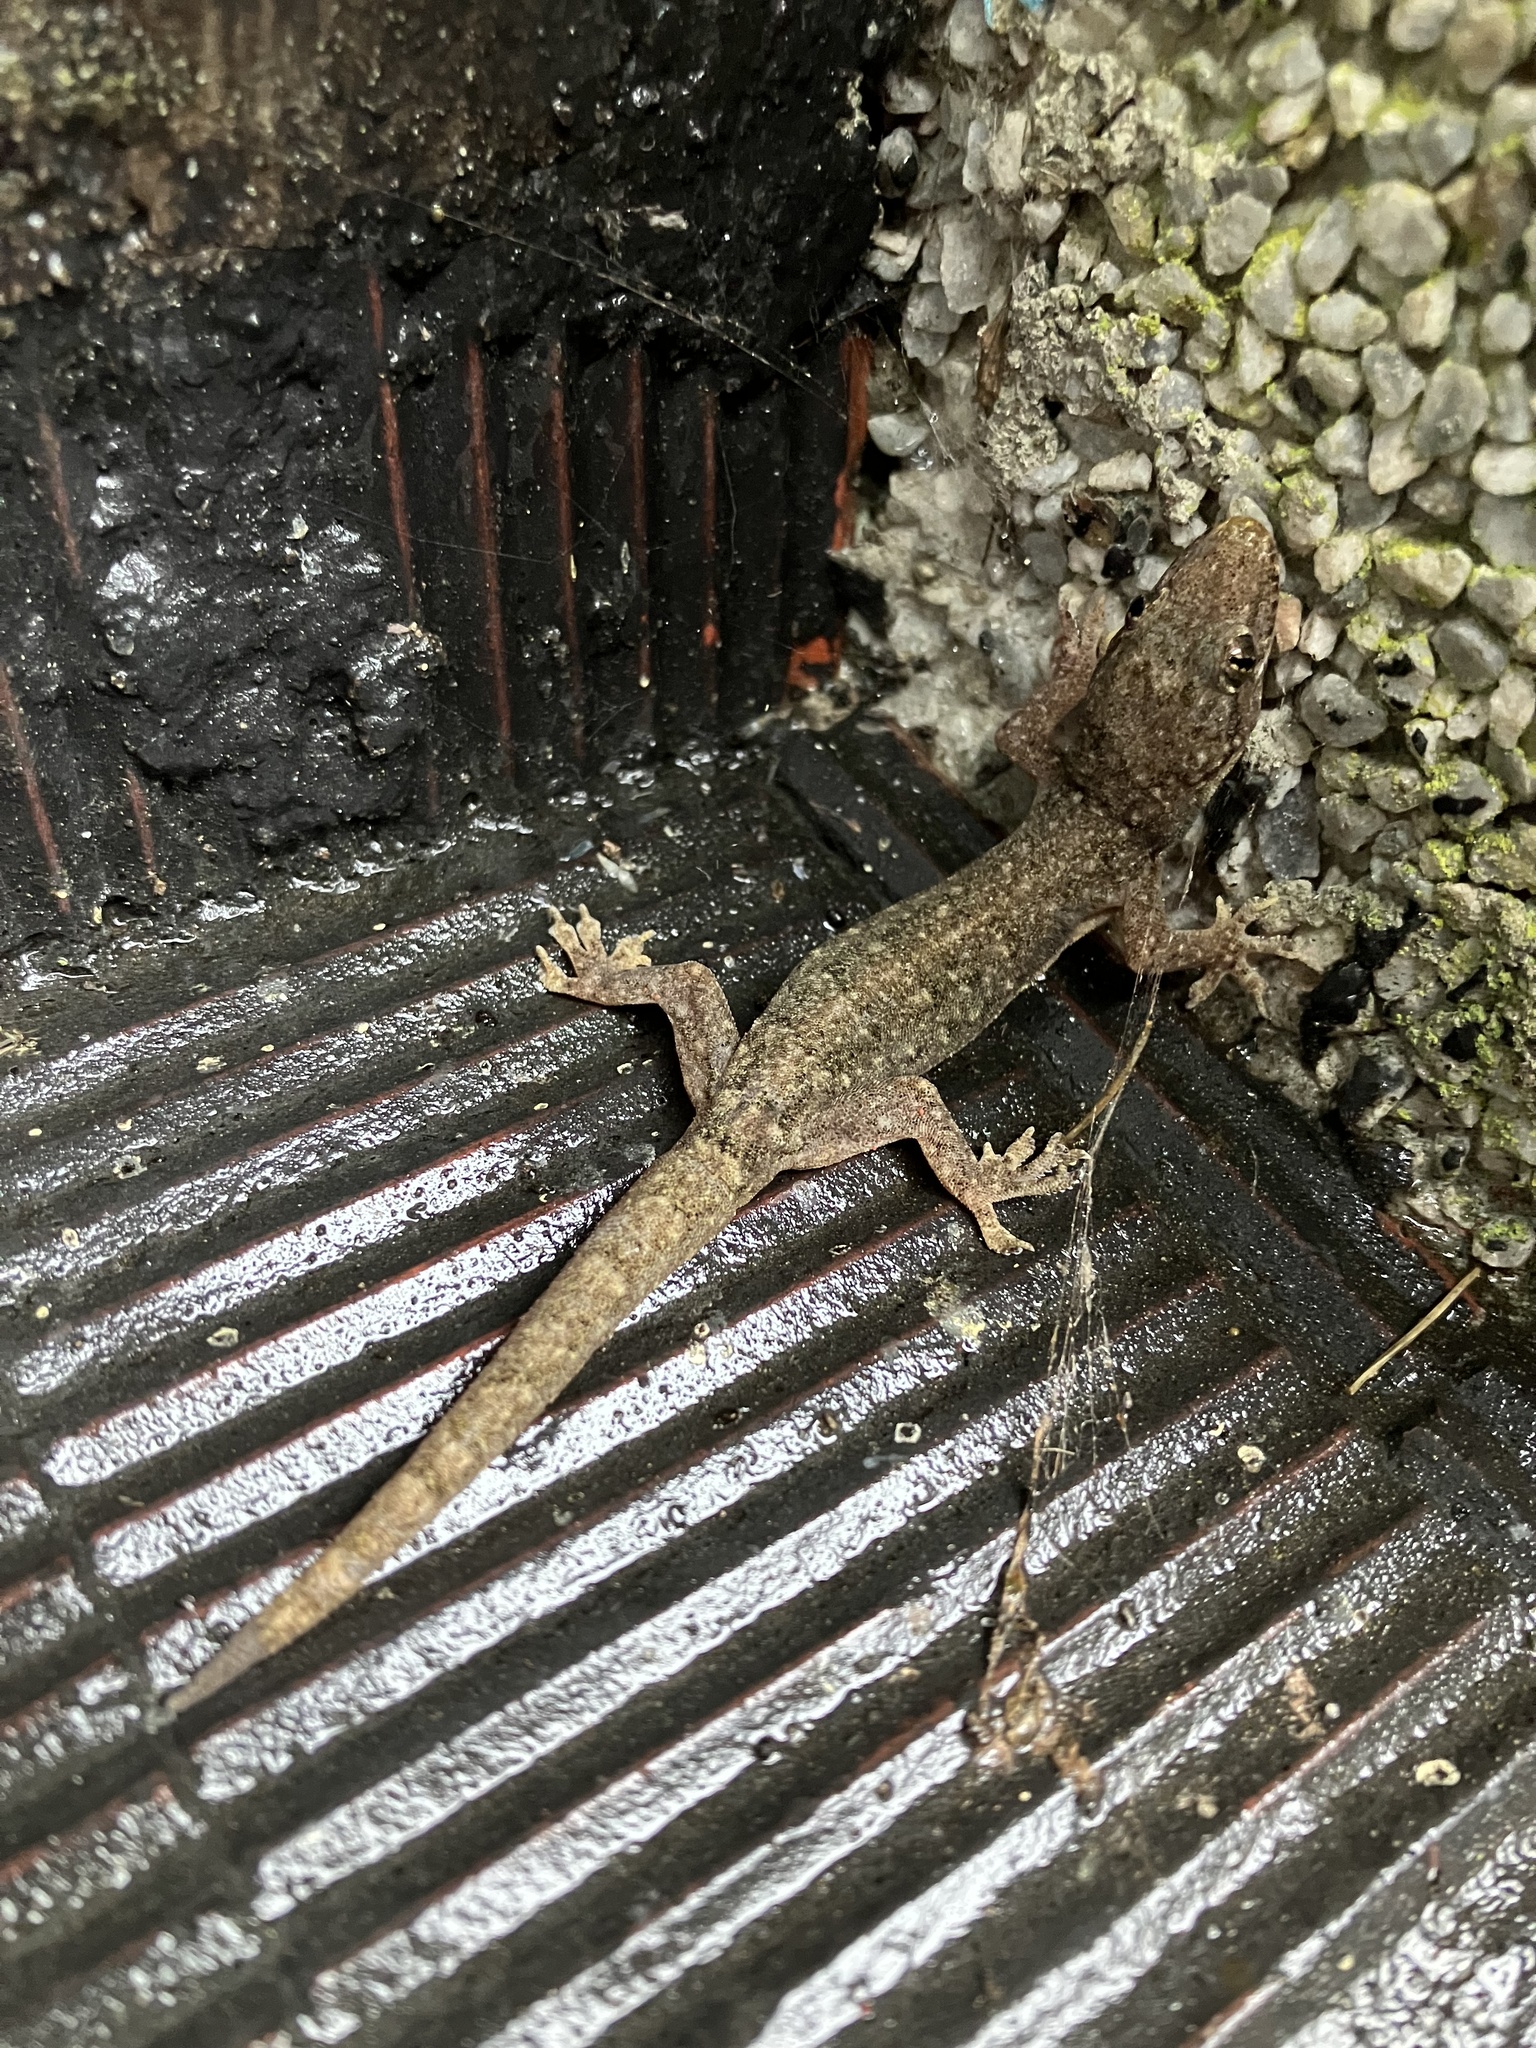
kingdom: Animalia
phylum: Chordata
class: Squamata
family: Gekkonidae
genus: Hemidactylus
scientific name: Hemidactylus bowringii
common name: Oriental leaf-toed gecko
